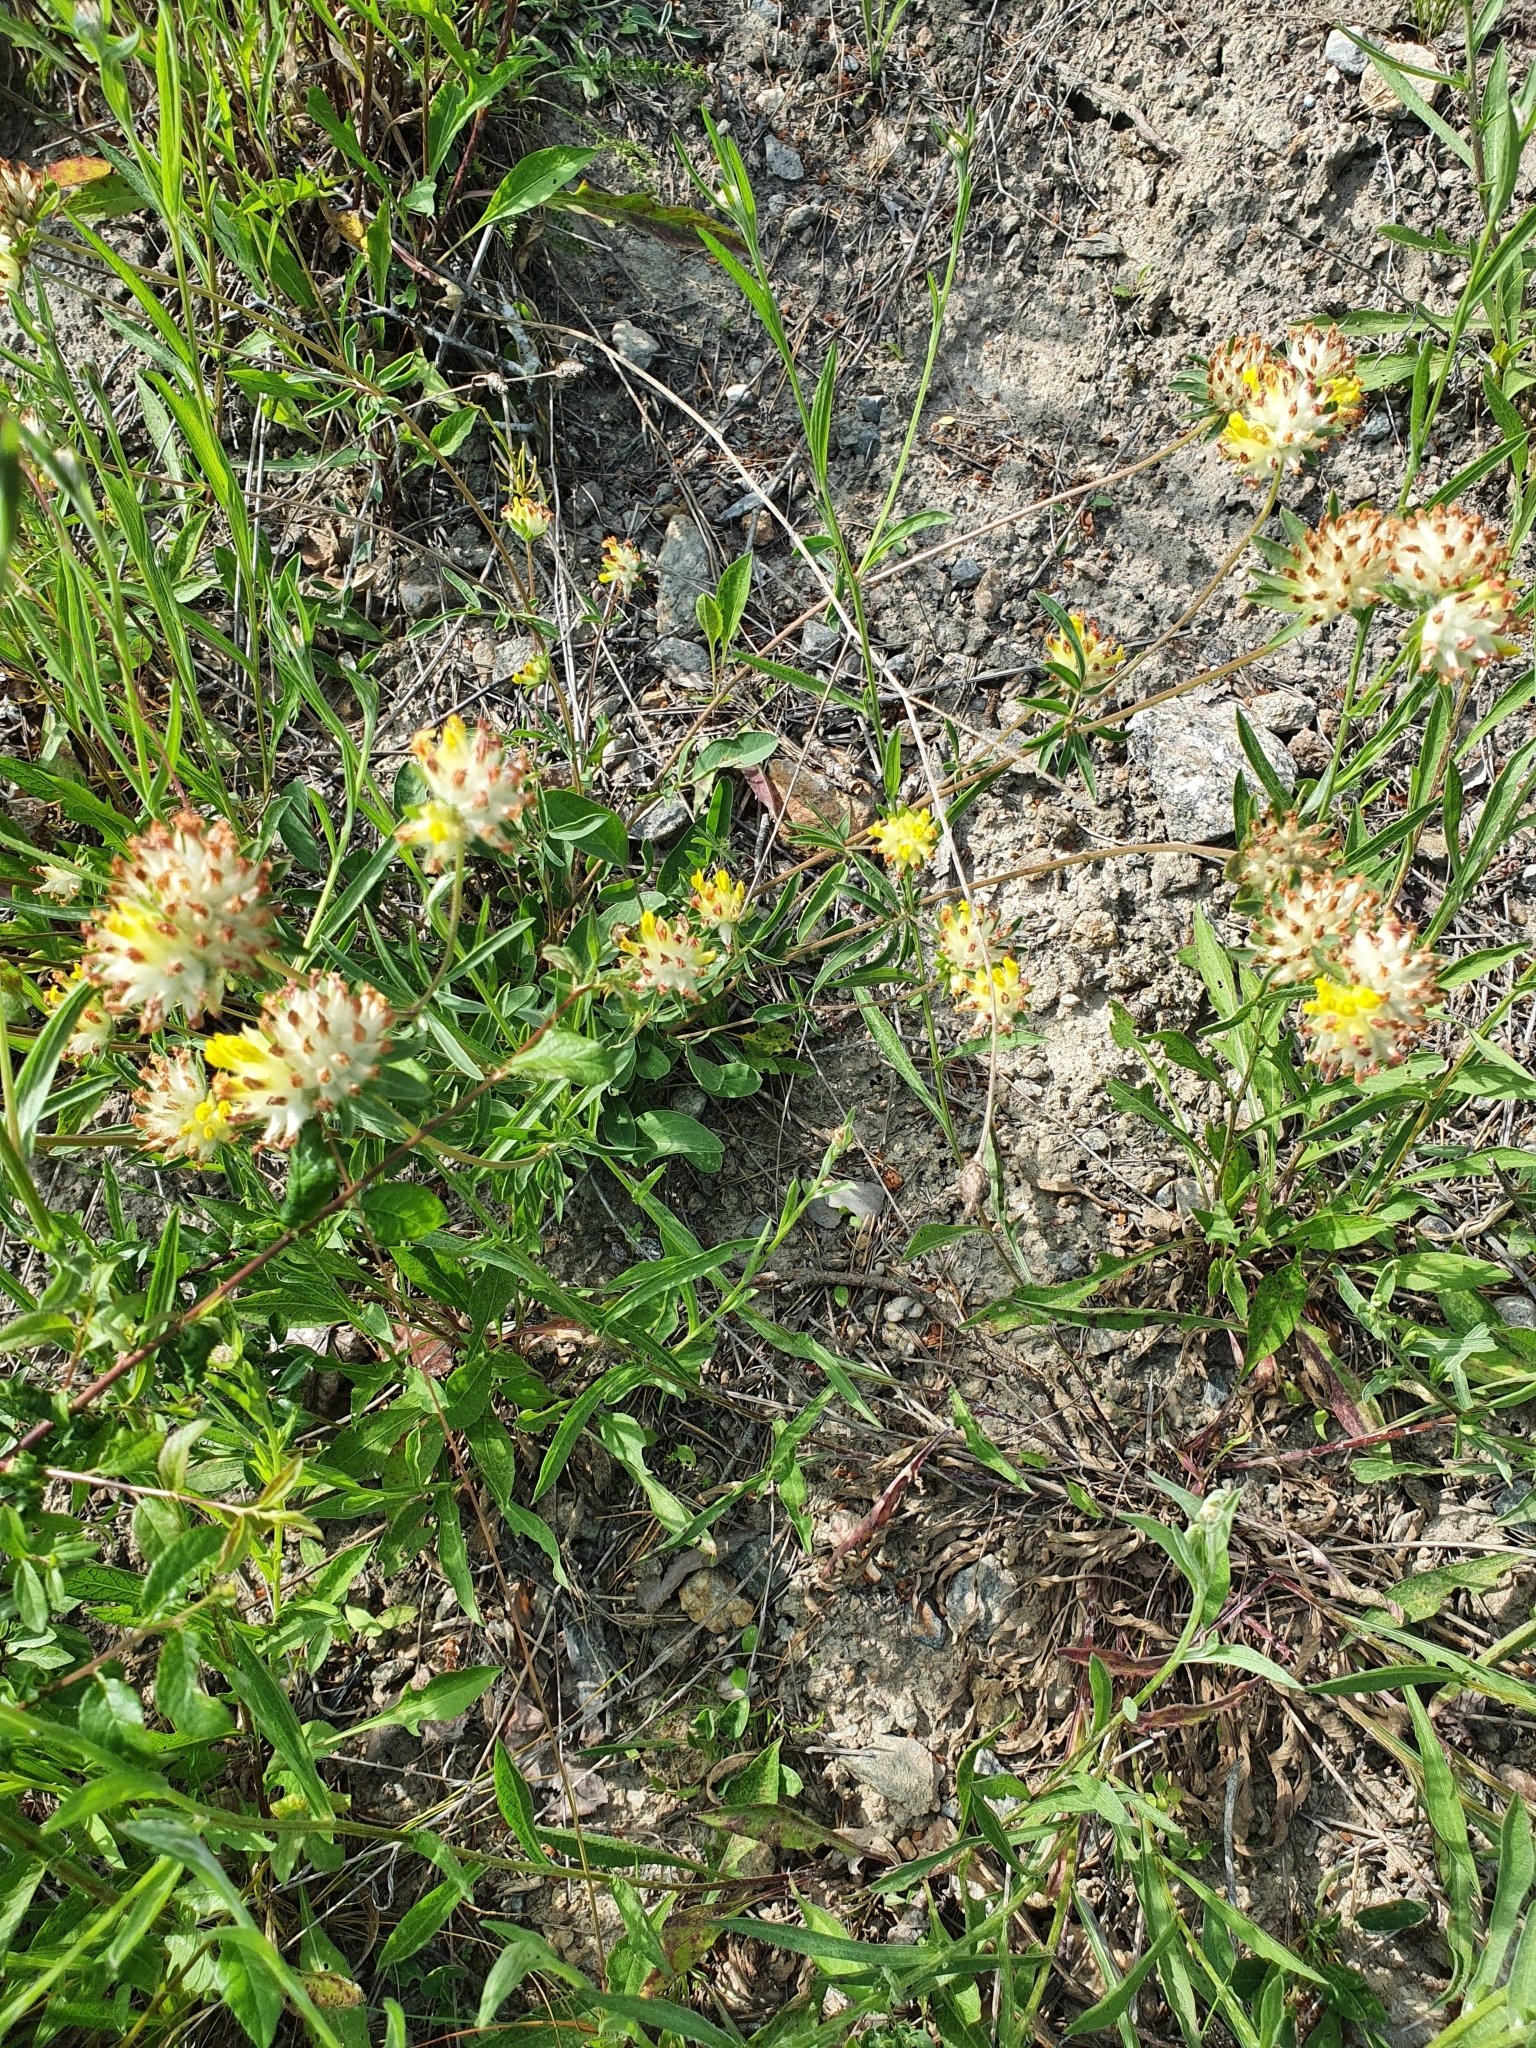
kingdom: Plantae
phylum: Tracheophyta
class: Magnoliopsida
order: Fabales
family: Fabaceae
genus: Anthyllis
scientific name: Anthyllis vulneraria
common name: Kidney vetch
